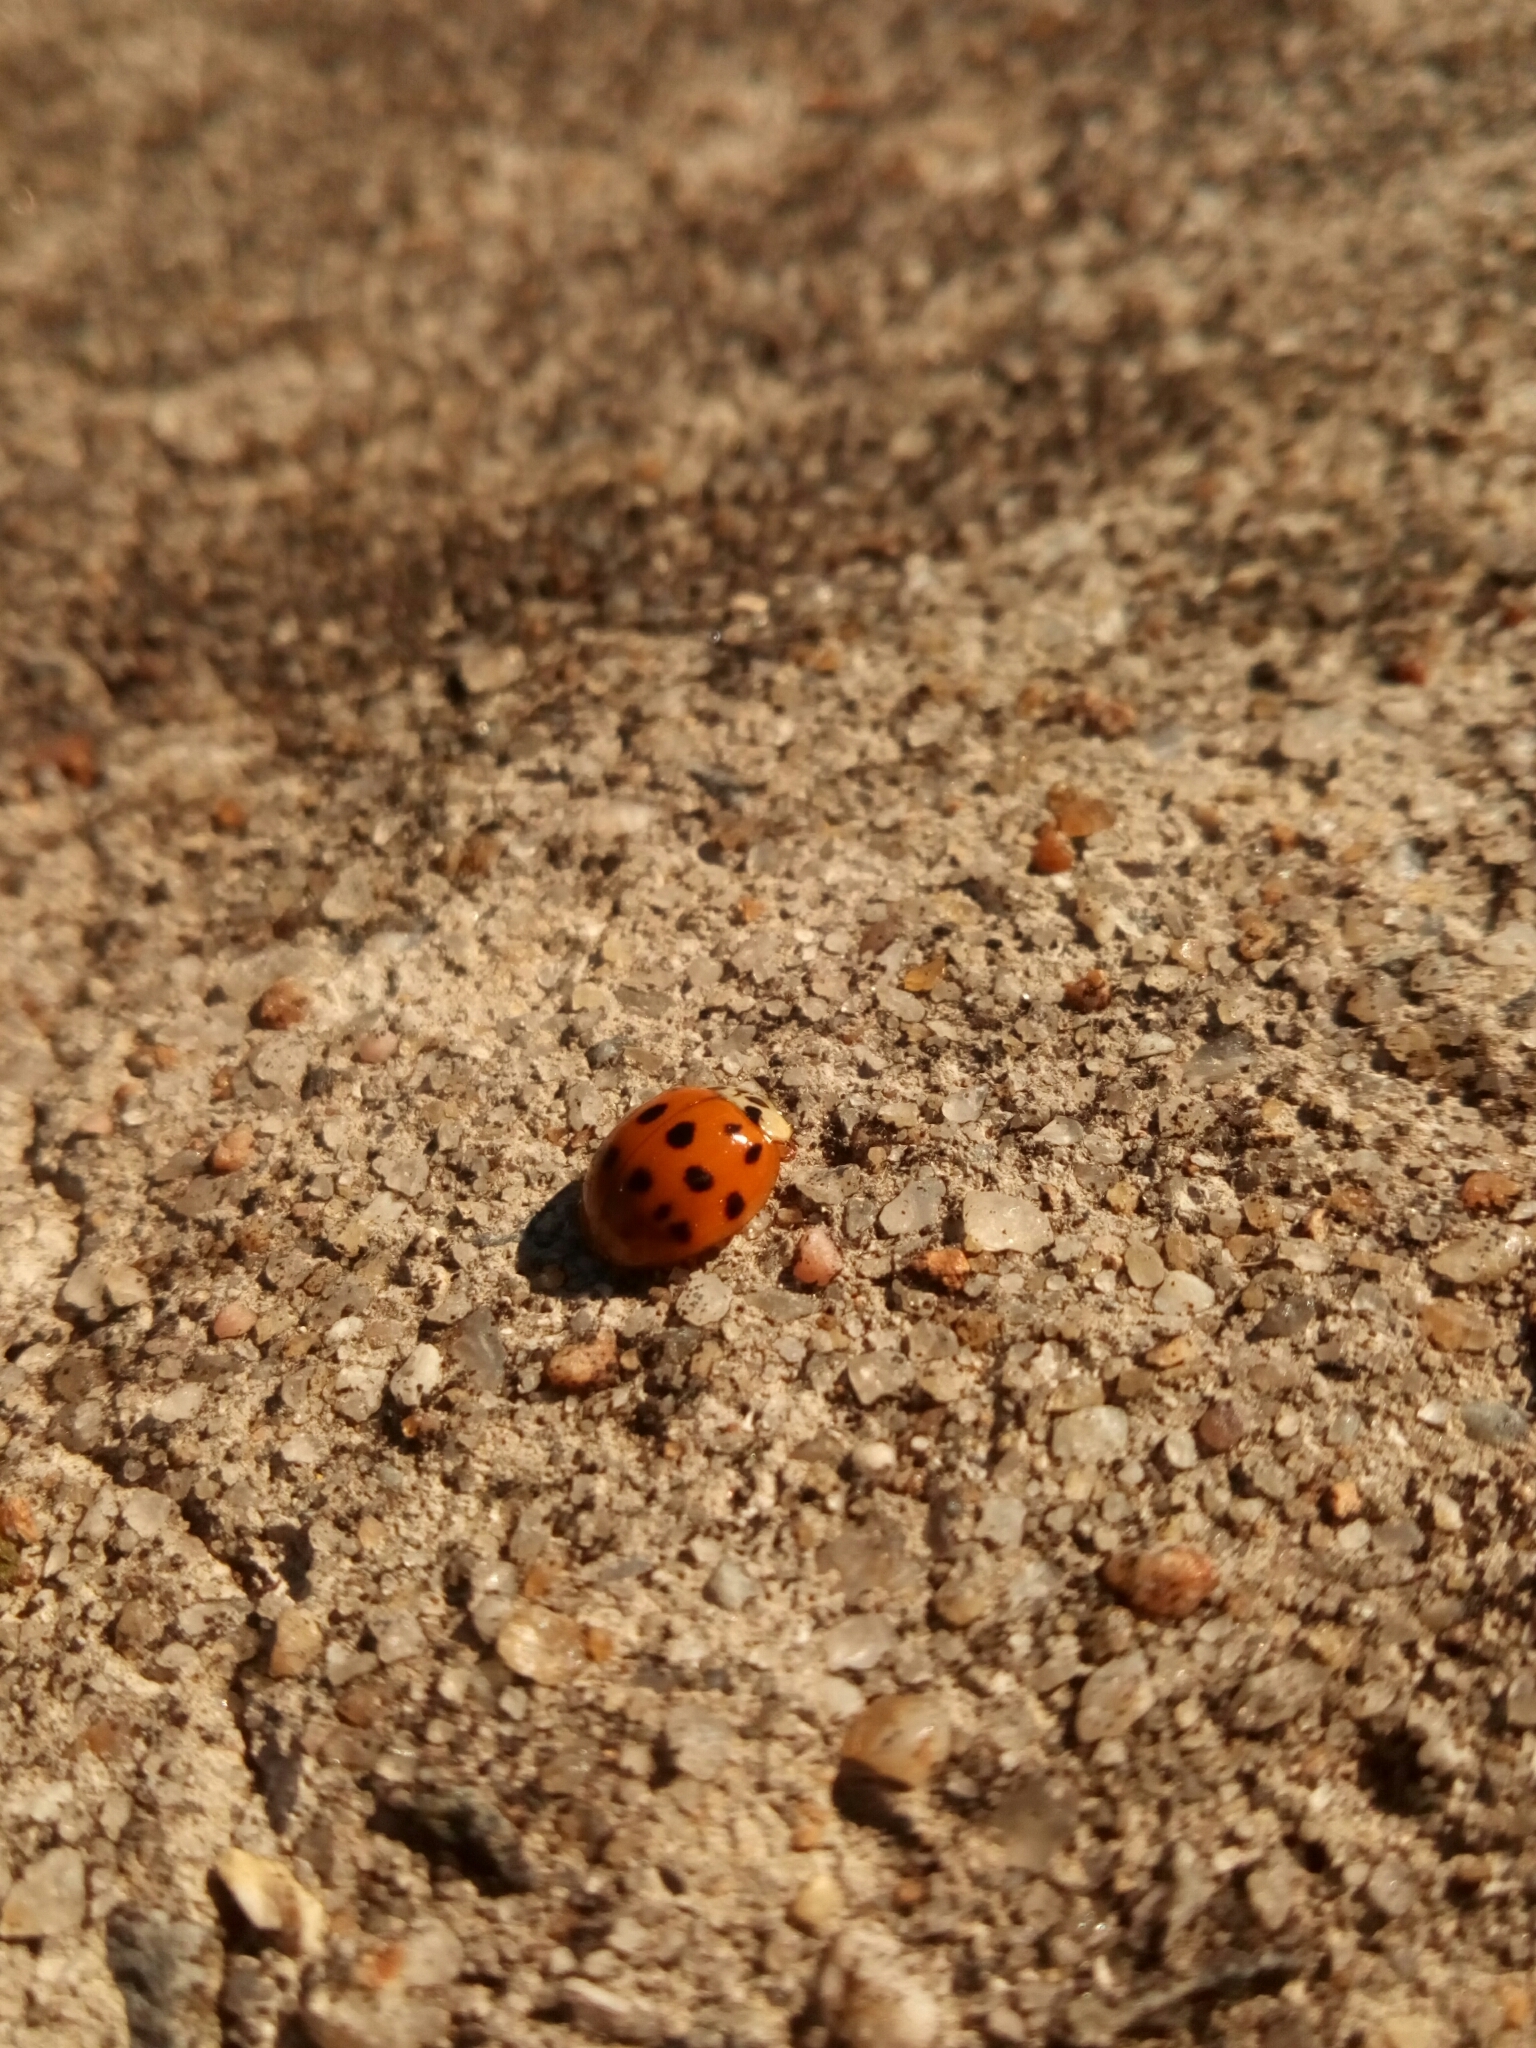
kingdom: Animalia
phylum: Arthropoda
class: Insecta
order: Coleoptera
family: Coccinellidae
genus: Harmonia
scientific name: Harmonia axyridis
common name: Harlequin ladybird
